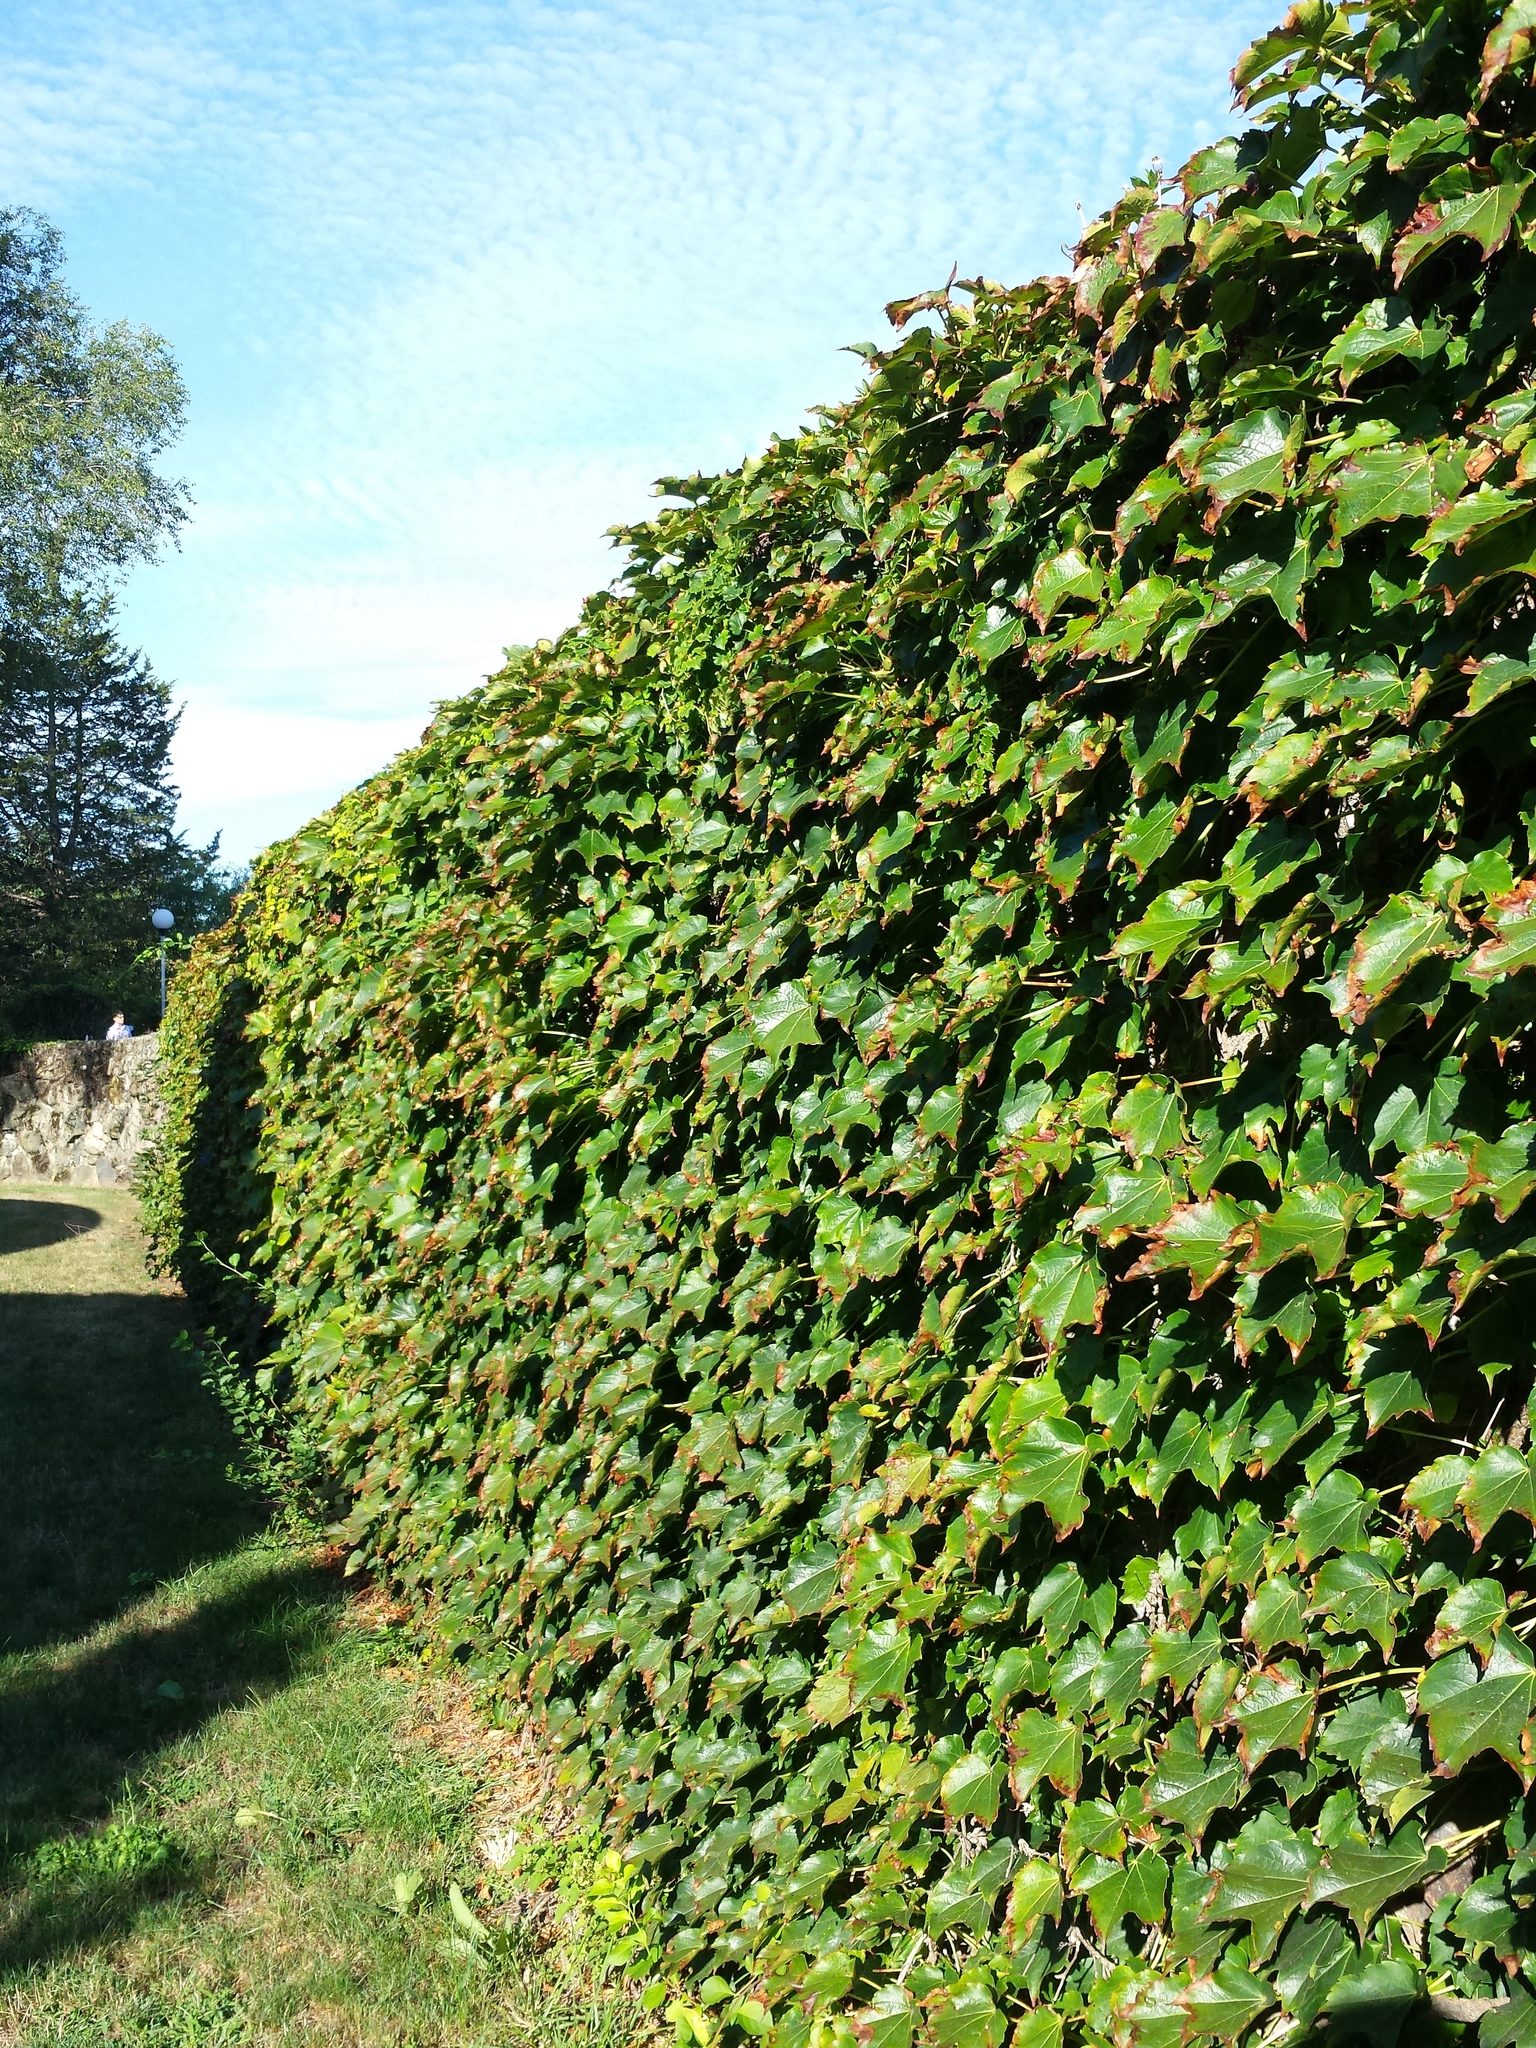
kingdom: Plantae
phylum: Tracheophyta
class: Magnoliopsida
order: Vitales
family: Vitaceae
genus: Parthenocissus
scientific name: Parthenocissus tricuspidata
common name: Boston ivy
